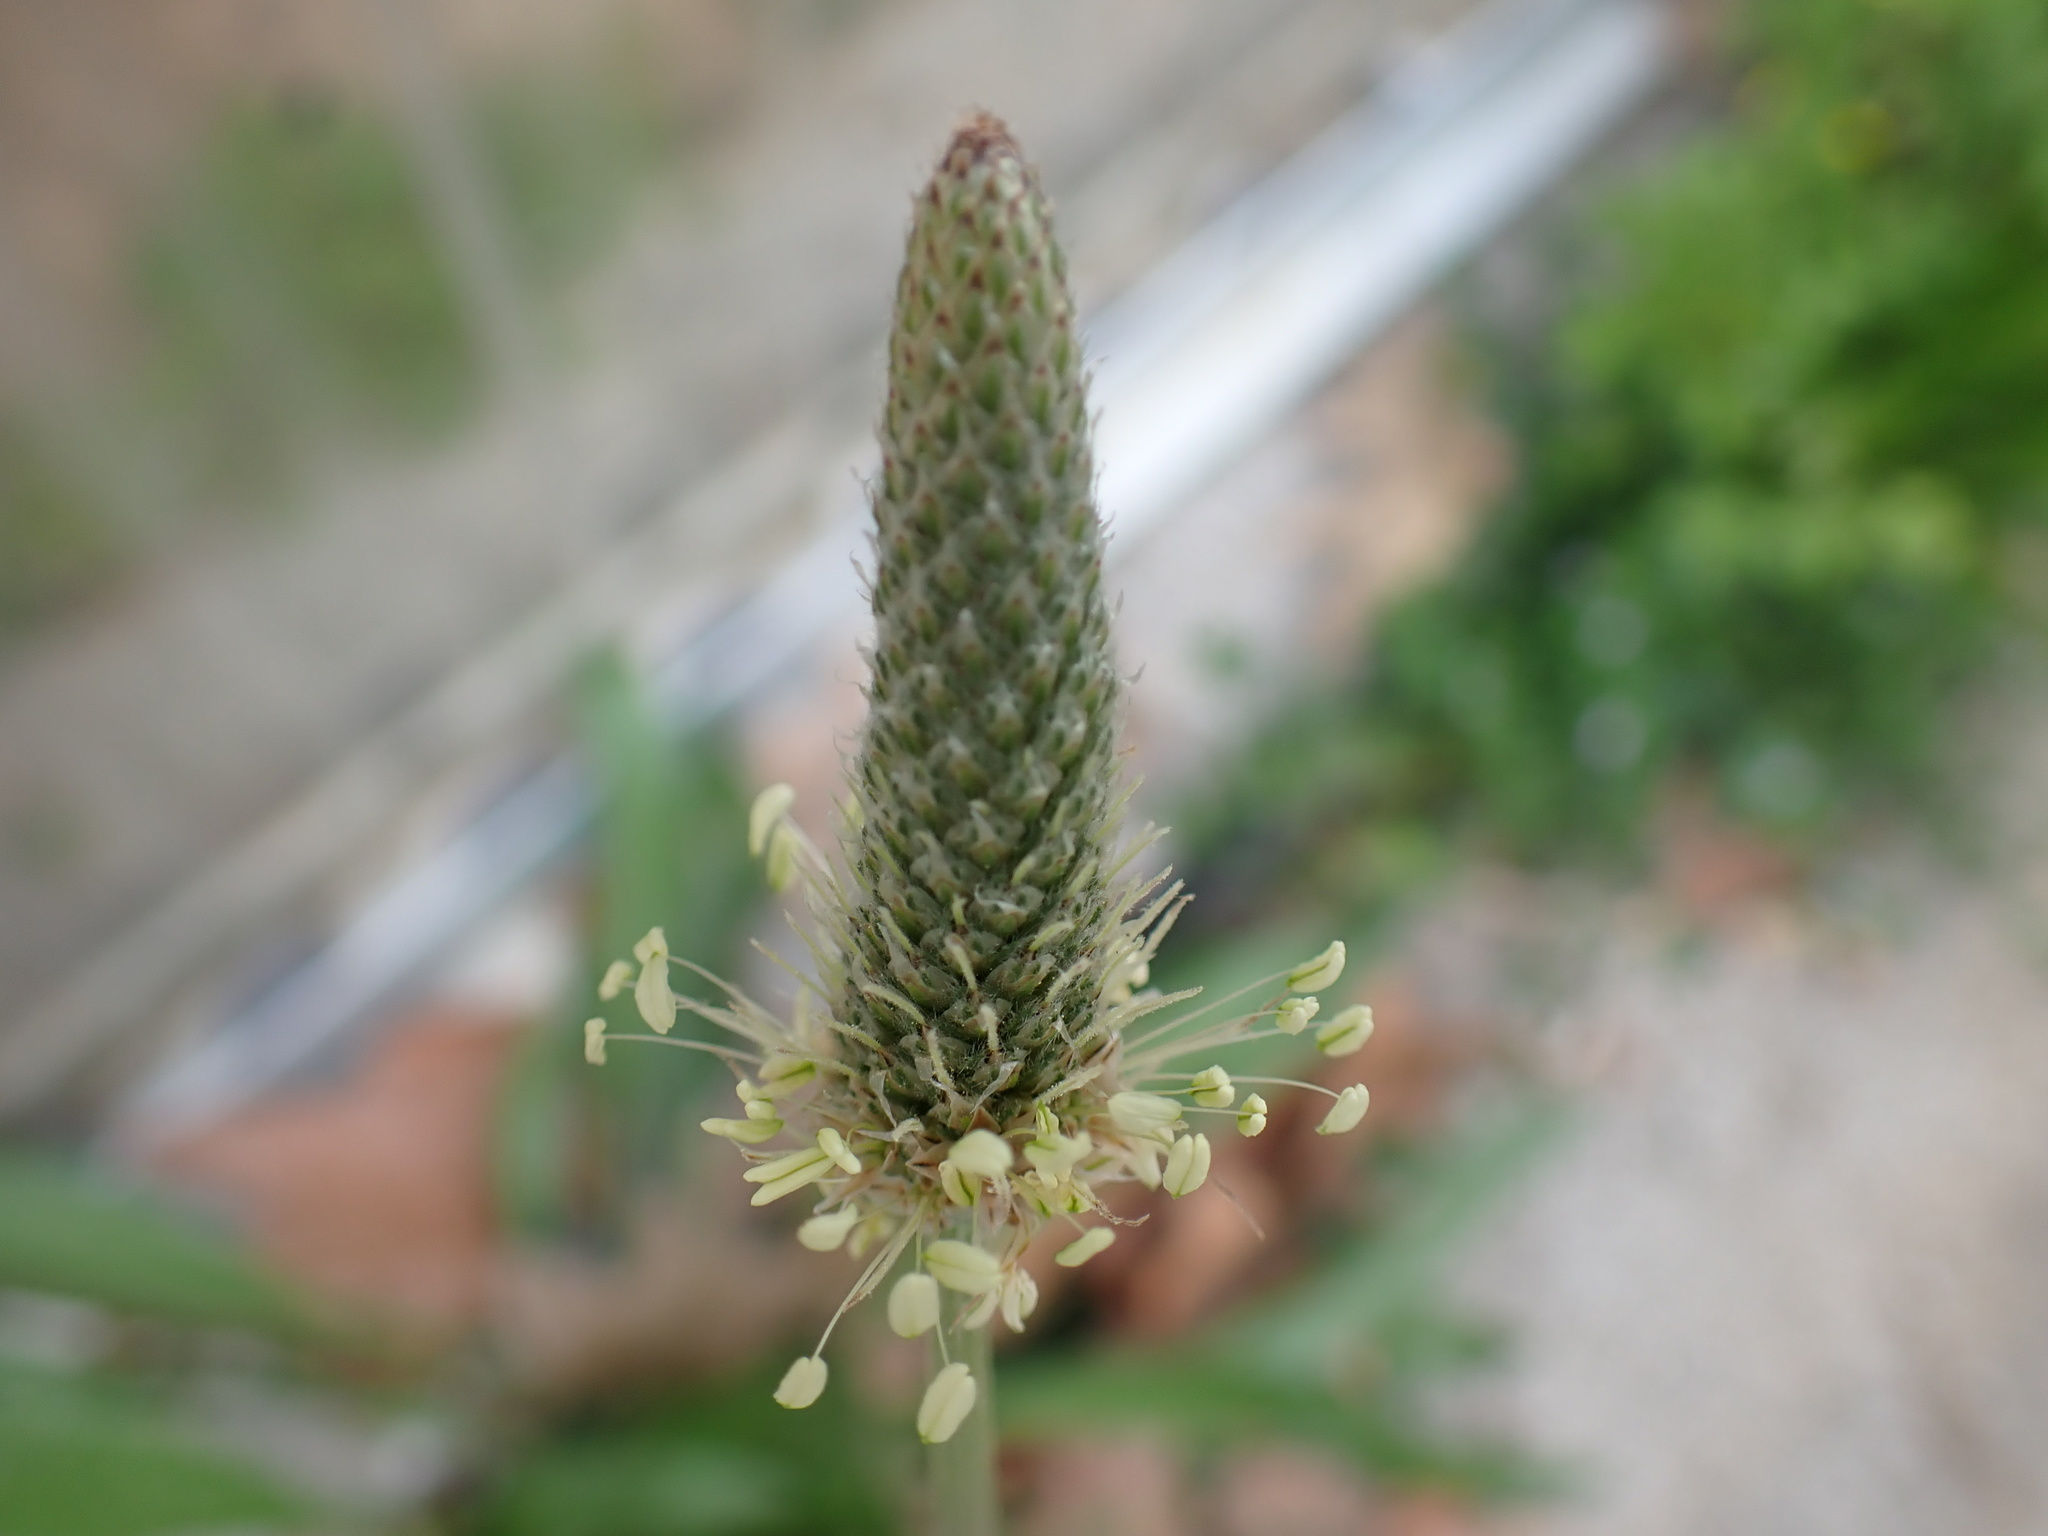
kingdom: Plantae
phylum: Tracheophyta
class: Magnoliopsida
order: Lamiales
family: Plantaginaceae
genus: Plantago
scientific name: Plantago lanceolata
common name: Ribwort plantain
